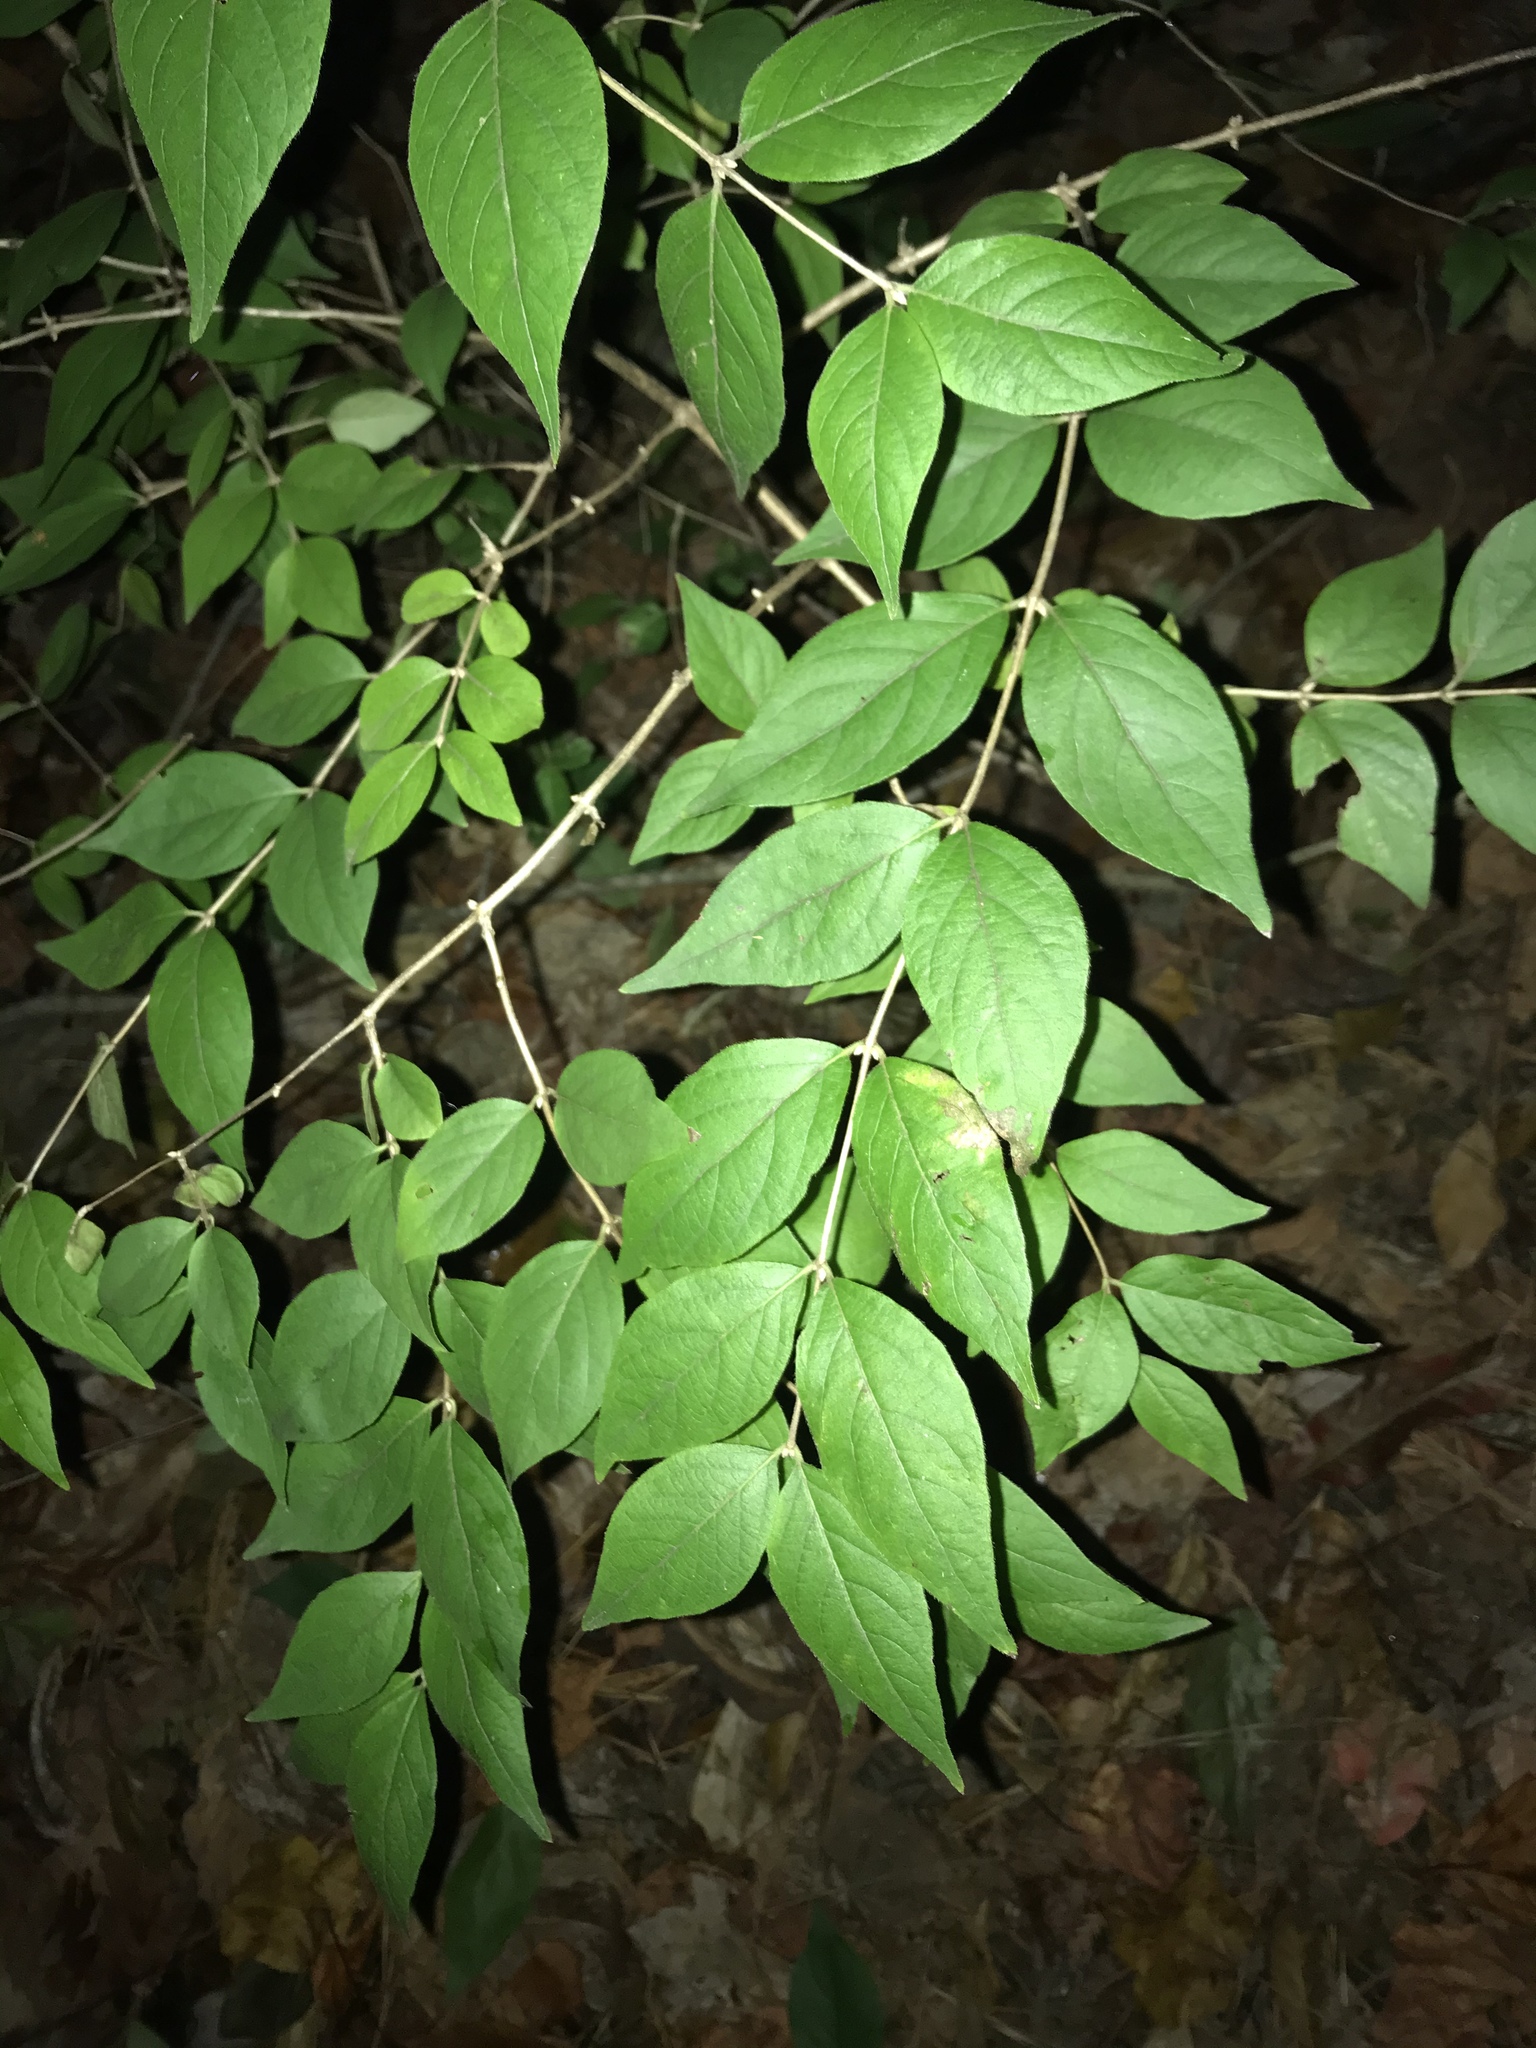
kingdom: Plantae
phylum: Tracheophyta
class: Magnoliopsida
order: Dipsacales
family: Caprifoliaceae
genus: Lonicera
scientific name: Lonicera maackii
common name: Amur honeysuckle
